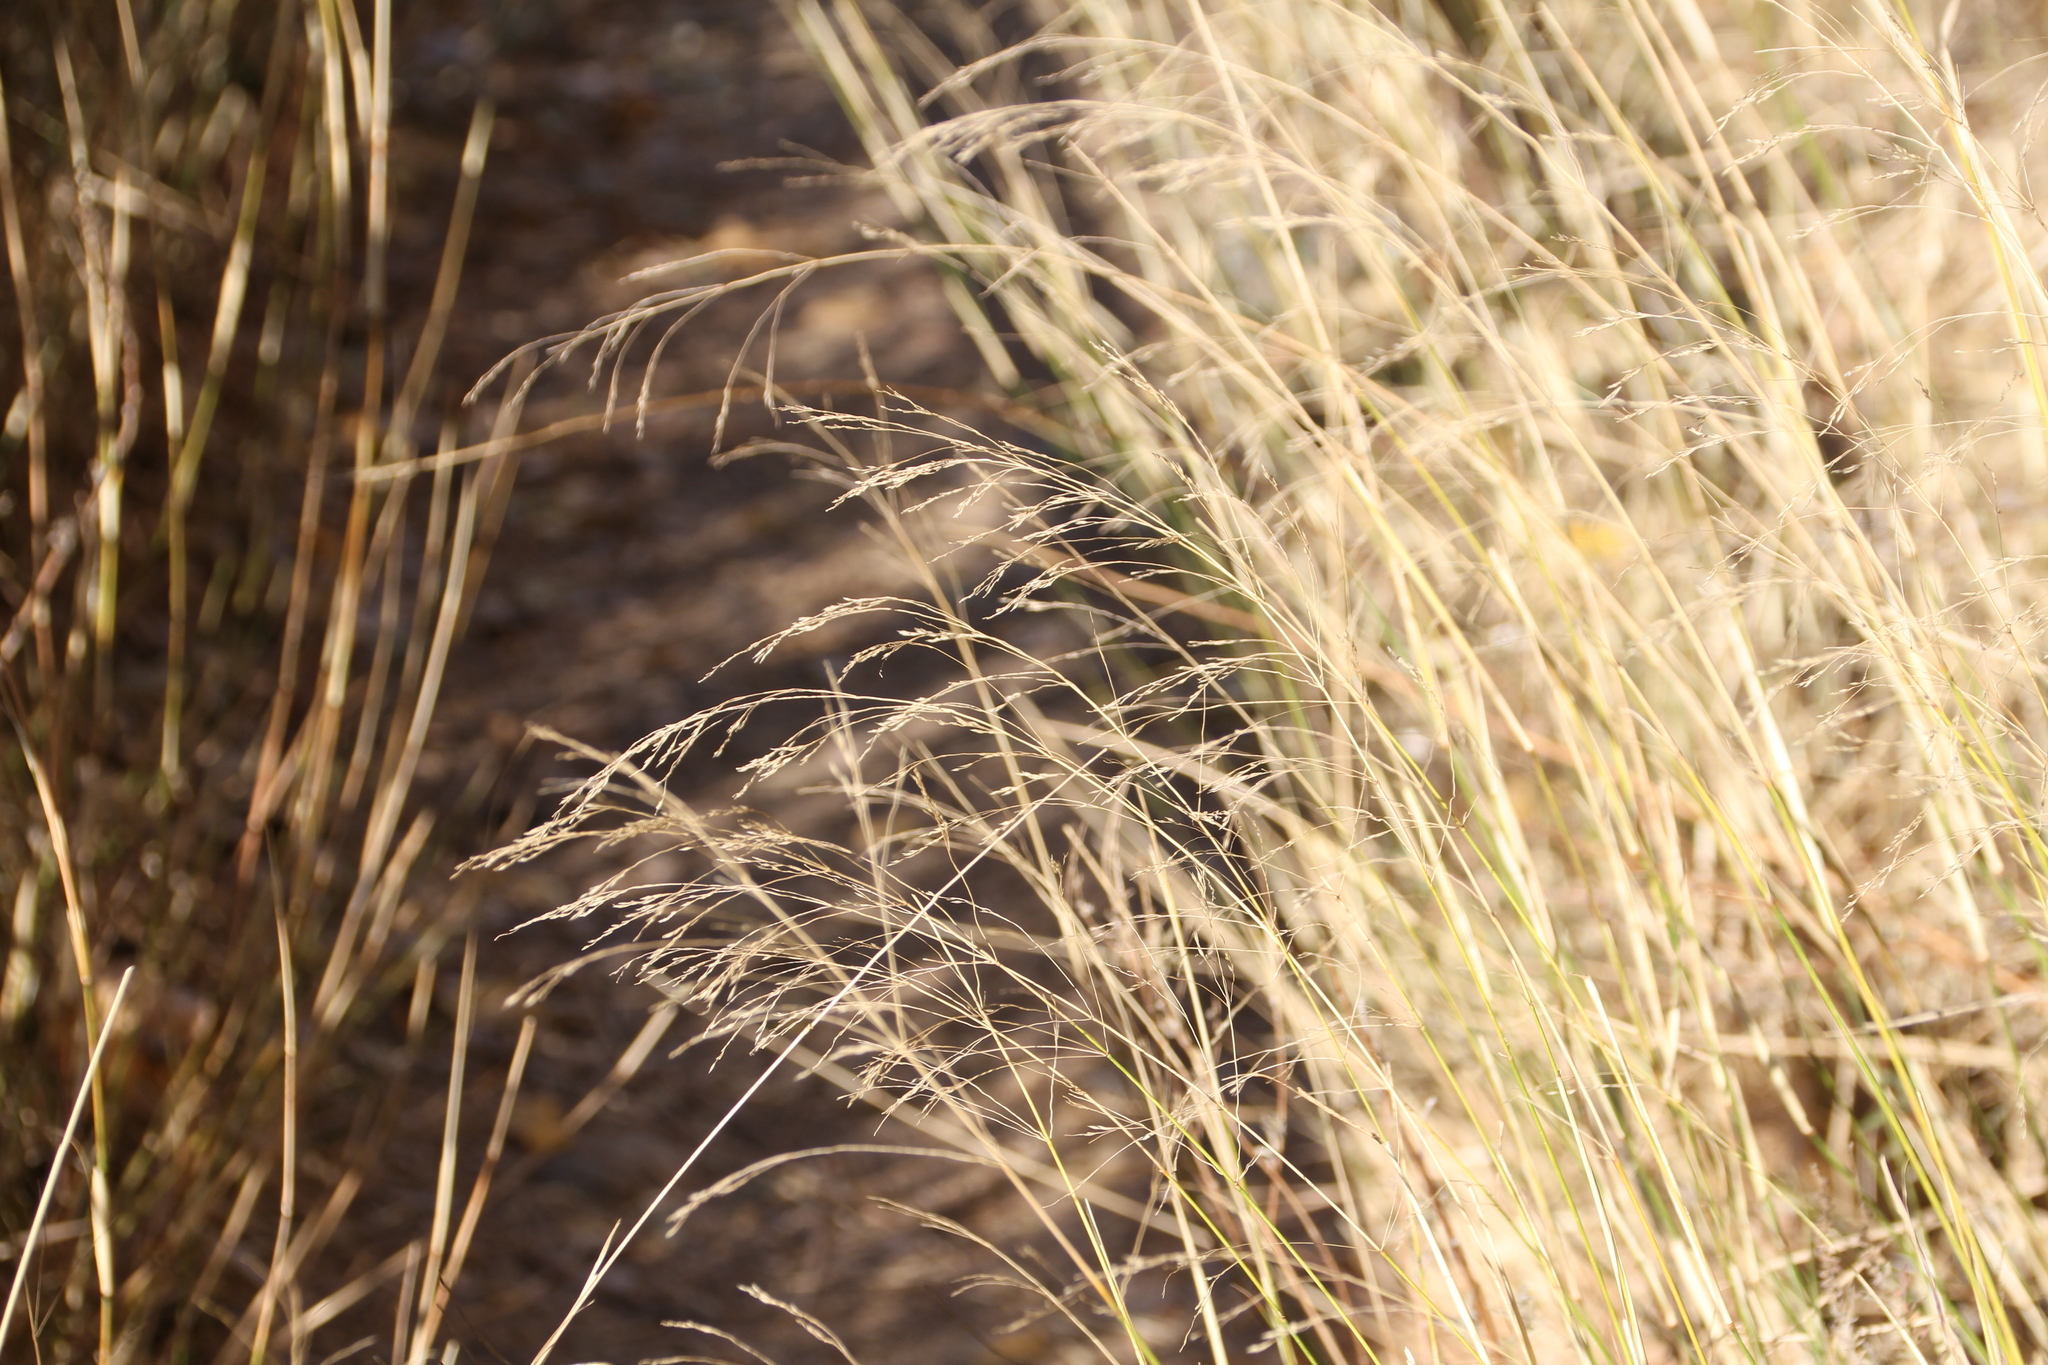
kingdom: Plantae
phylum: Tracheophyta
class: Liliopsida
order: Poales
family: Poaceae
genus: Oloptum
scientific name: Oloptum miliaceum
